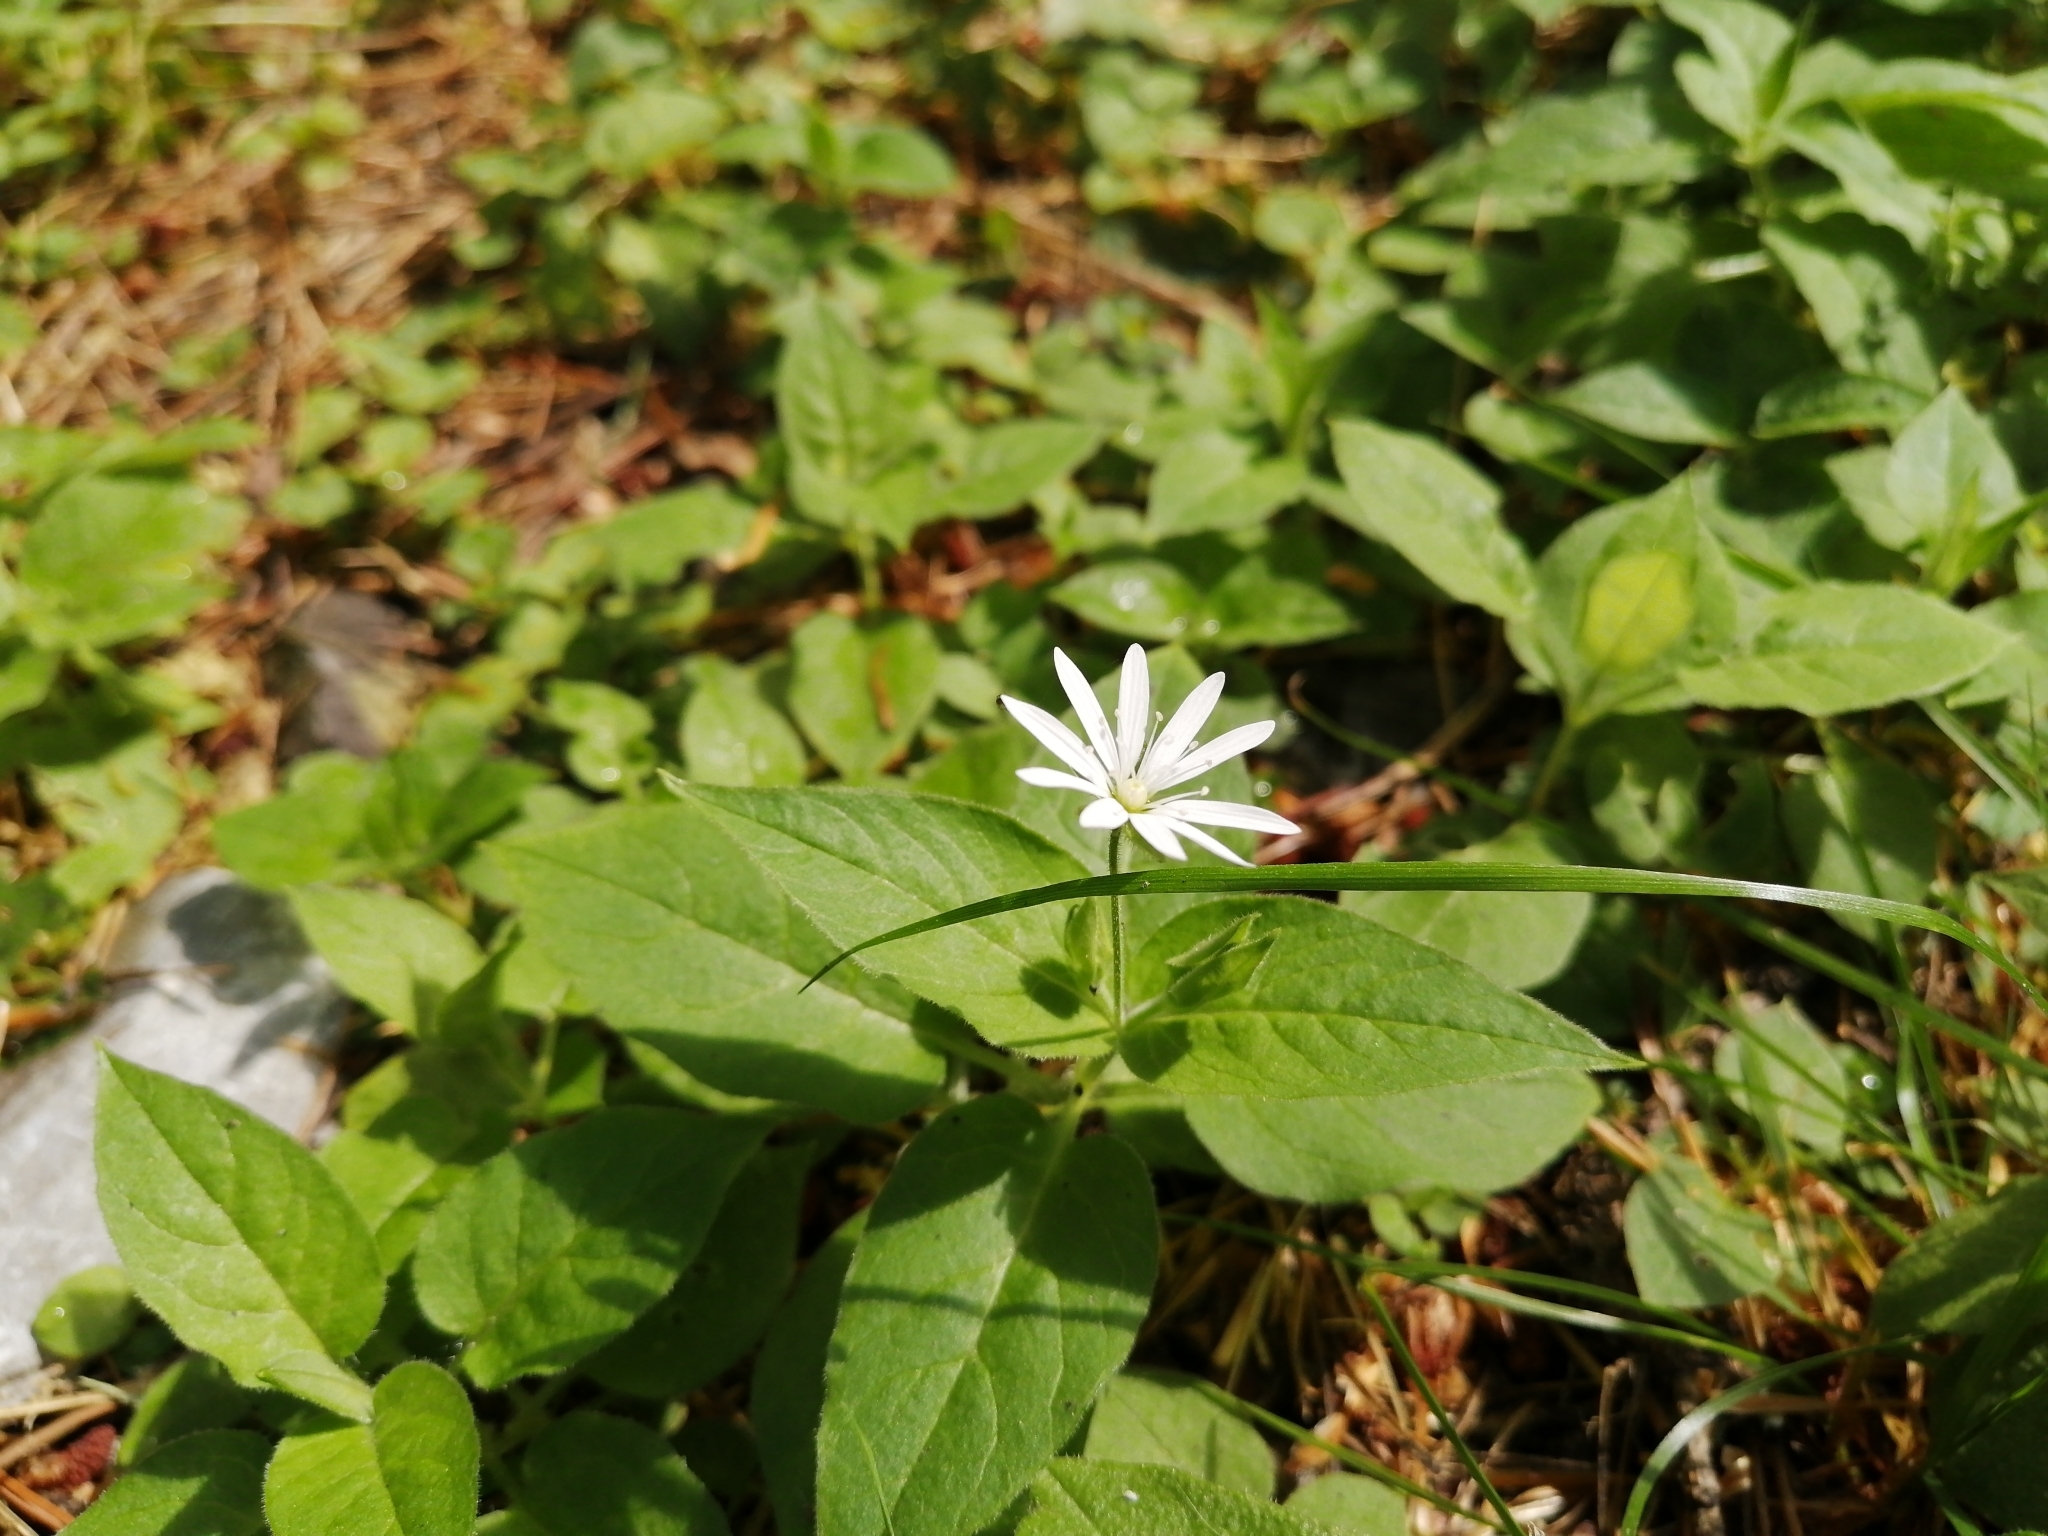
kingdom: Plantae
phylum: Tracheophyta
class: Magnoliopsida
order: Caryophyllales
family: Caryophyllaceae
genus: Stellaria
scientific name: Stellaria bungeana
